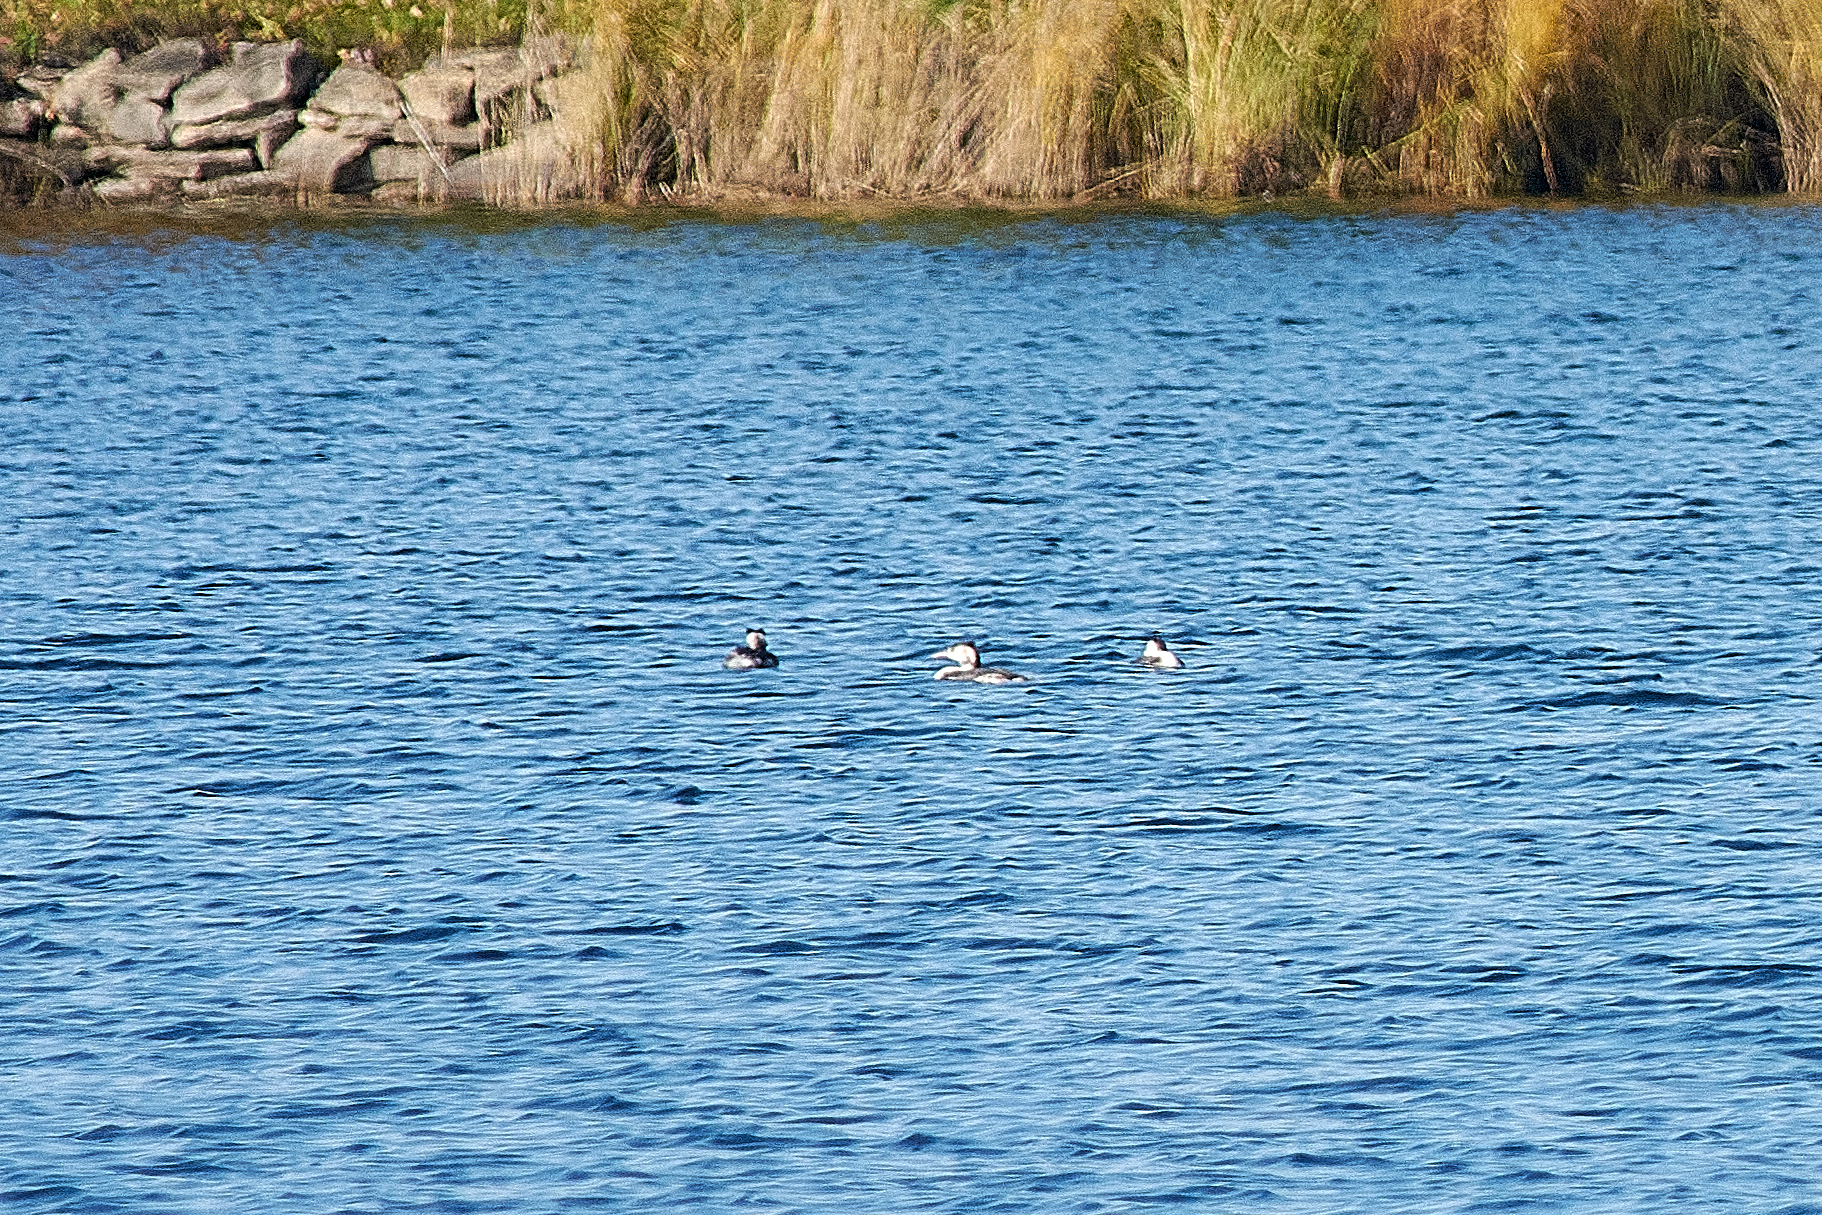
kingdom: Animalia
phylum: Chordata
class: Aves
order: Podicipediformes
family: Podicipedidae
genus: Podiceps
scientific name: Podiceps cristatus
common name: Great crested grebe
